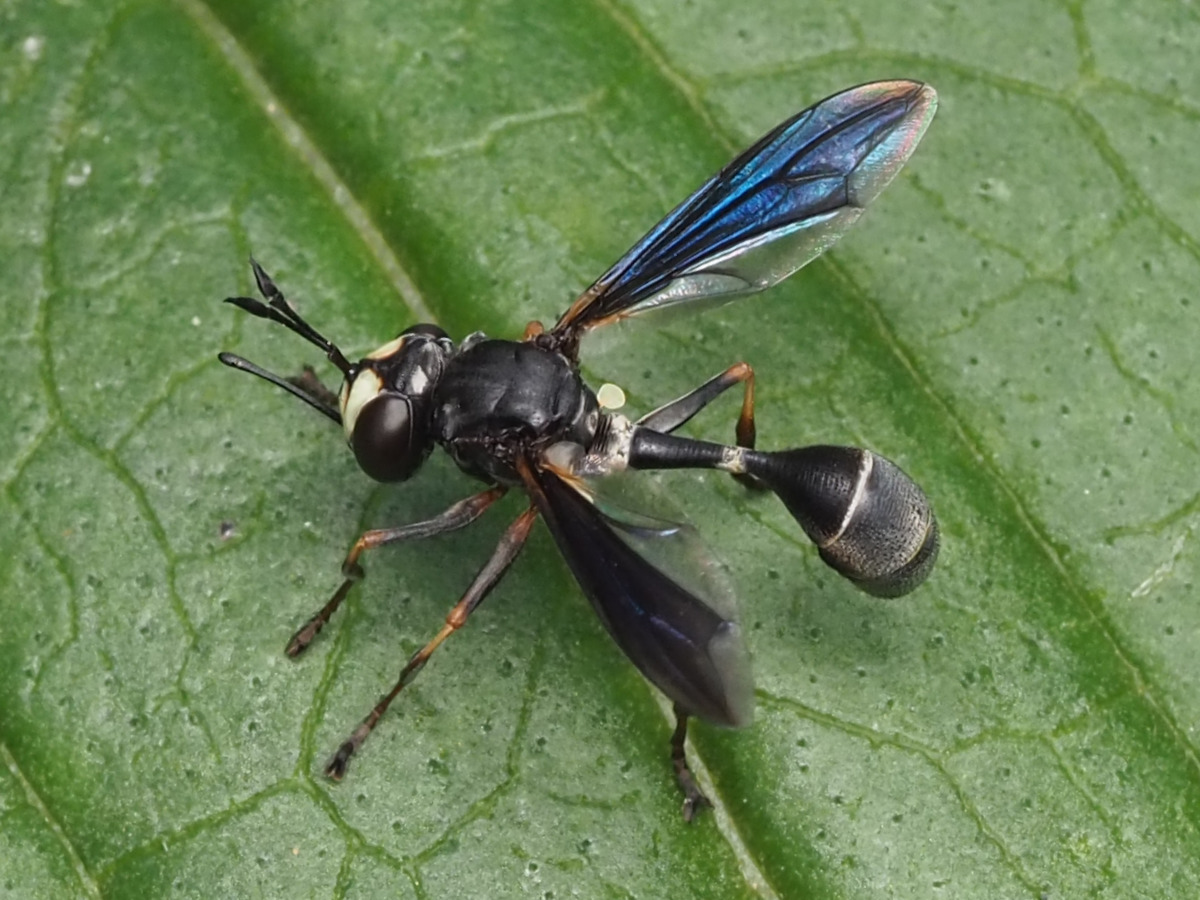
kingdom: Animalia
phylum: Arthropoda
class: Insecta
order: Diptera
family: Conopidae
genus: Physocephala
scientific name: Physocephala tibialis
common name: Common eastern physocephala
